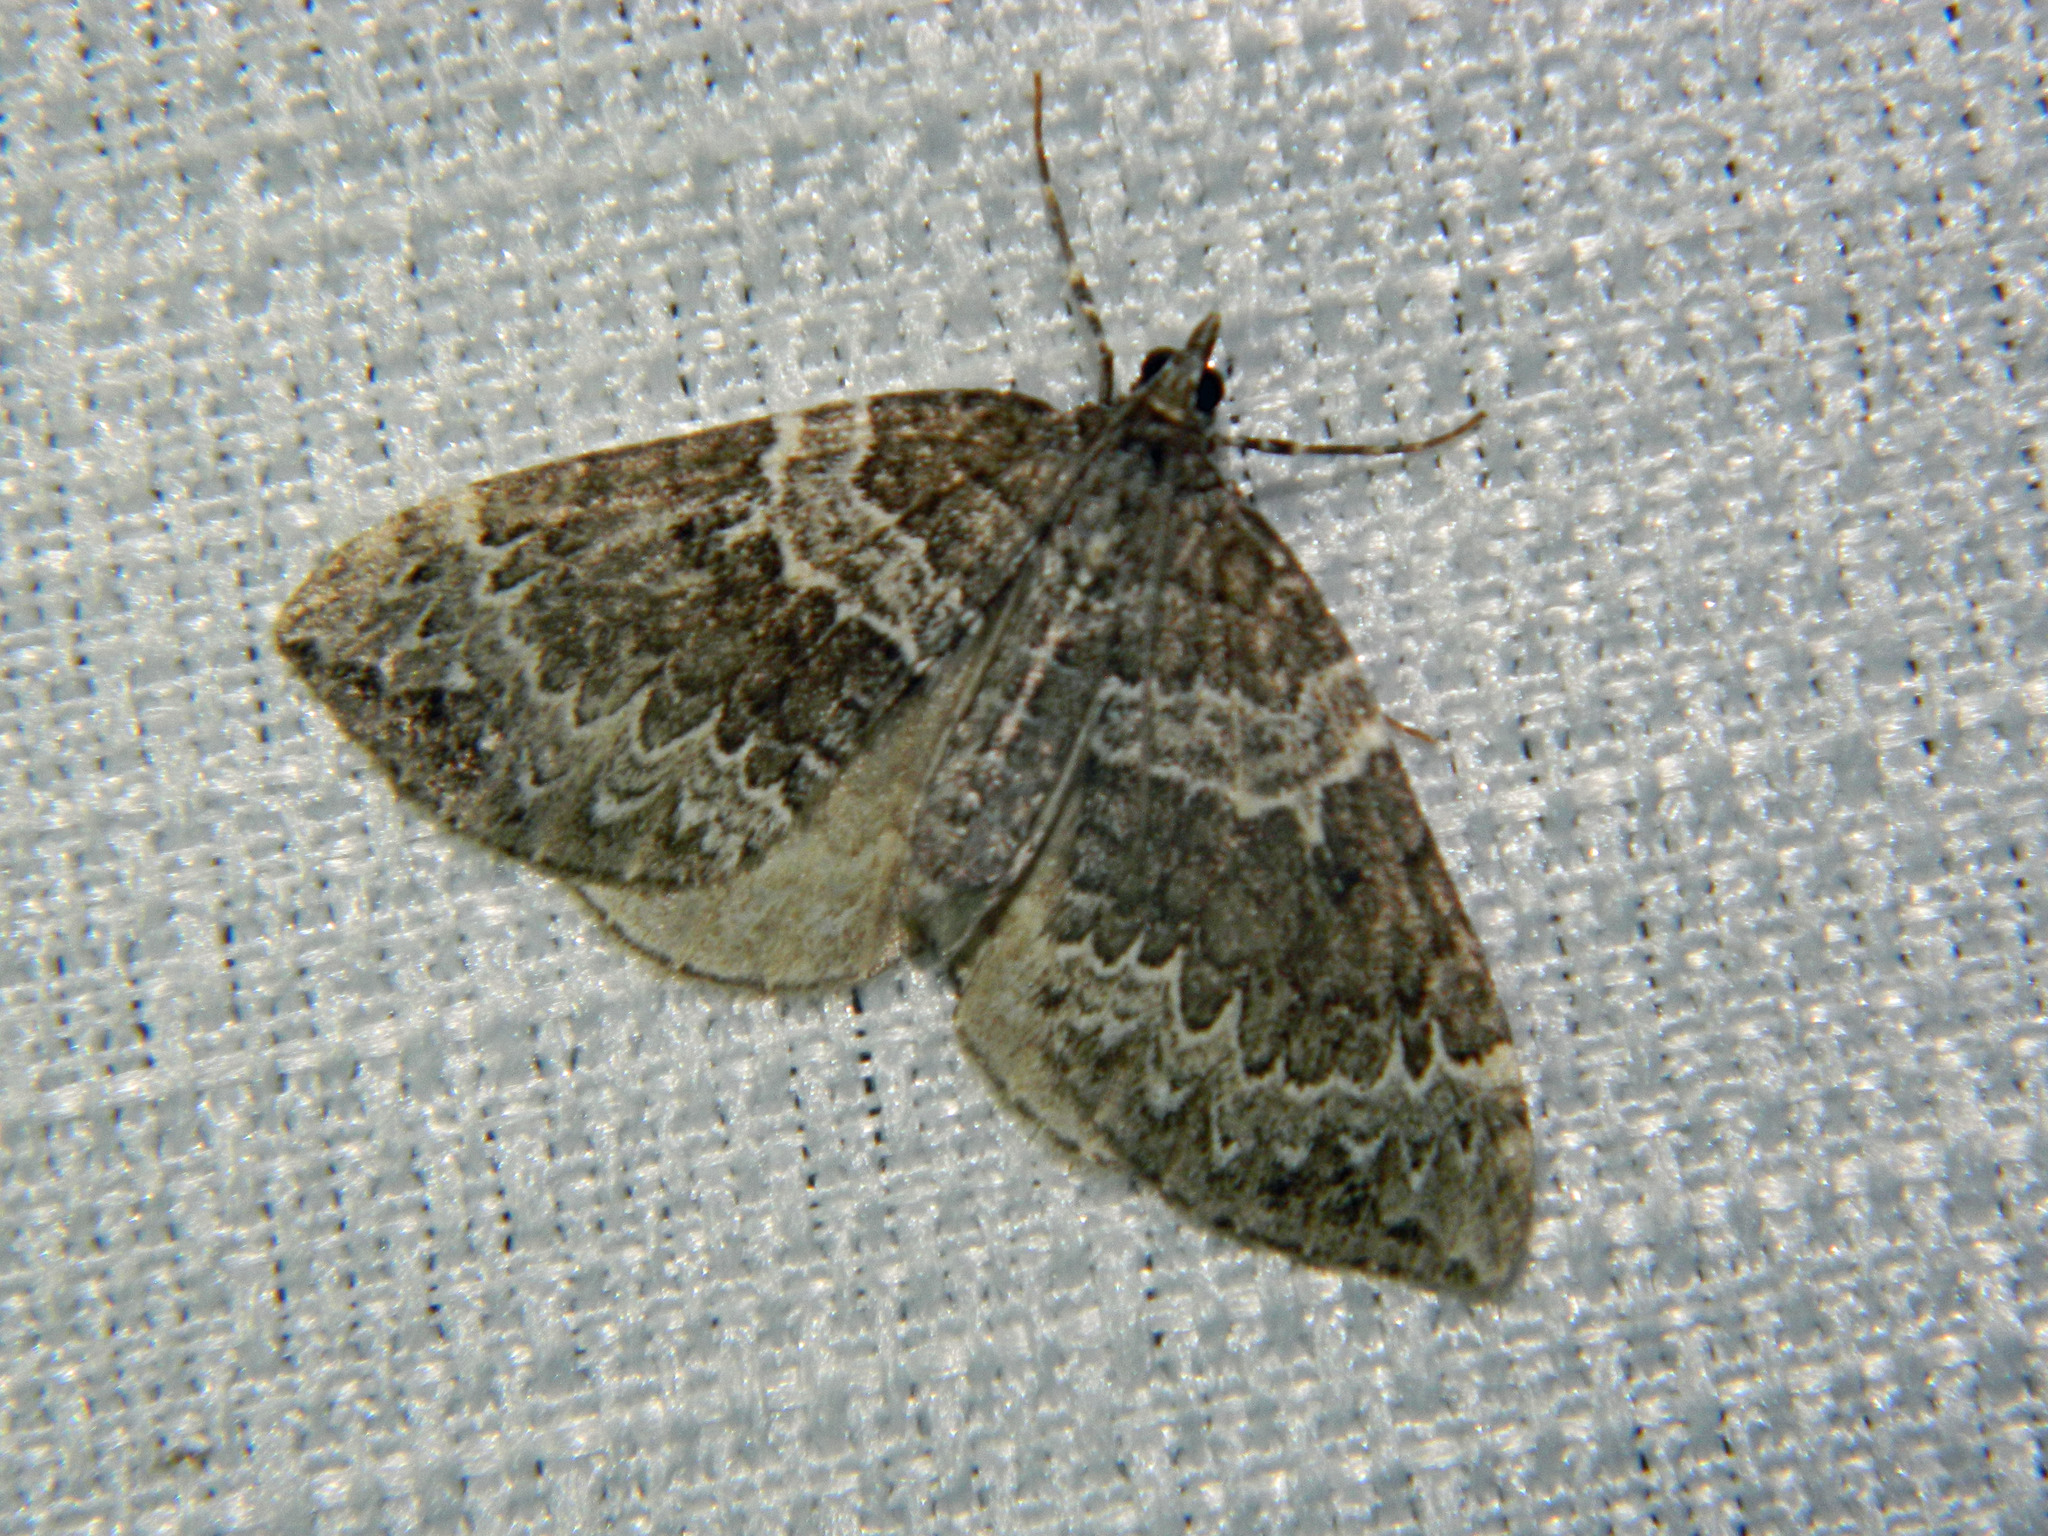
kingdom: Animalia
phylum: Arthropoda
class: Insecta
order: Lepidoptera
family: Geometridae
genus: Eulithis
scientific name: Eulithis explanata
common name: White eulithis
